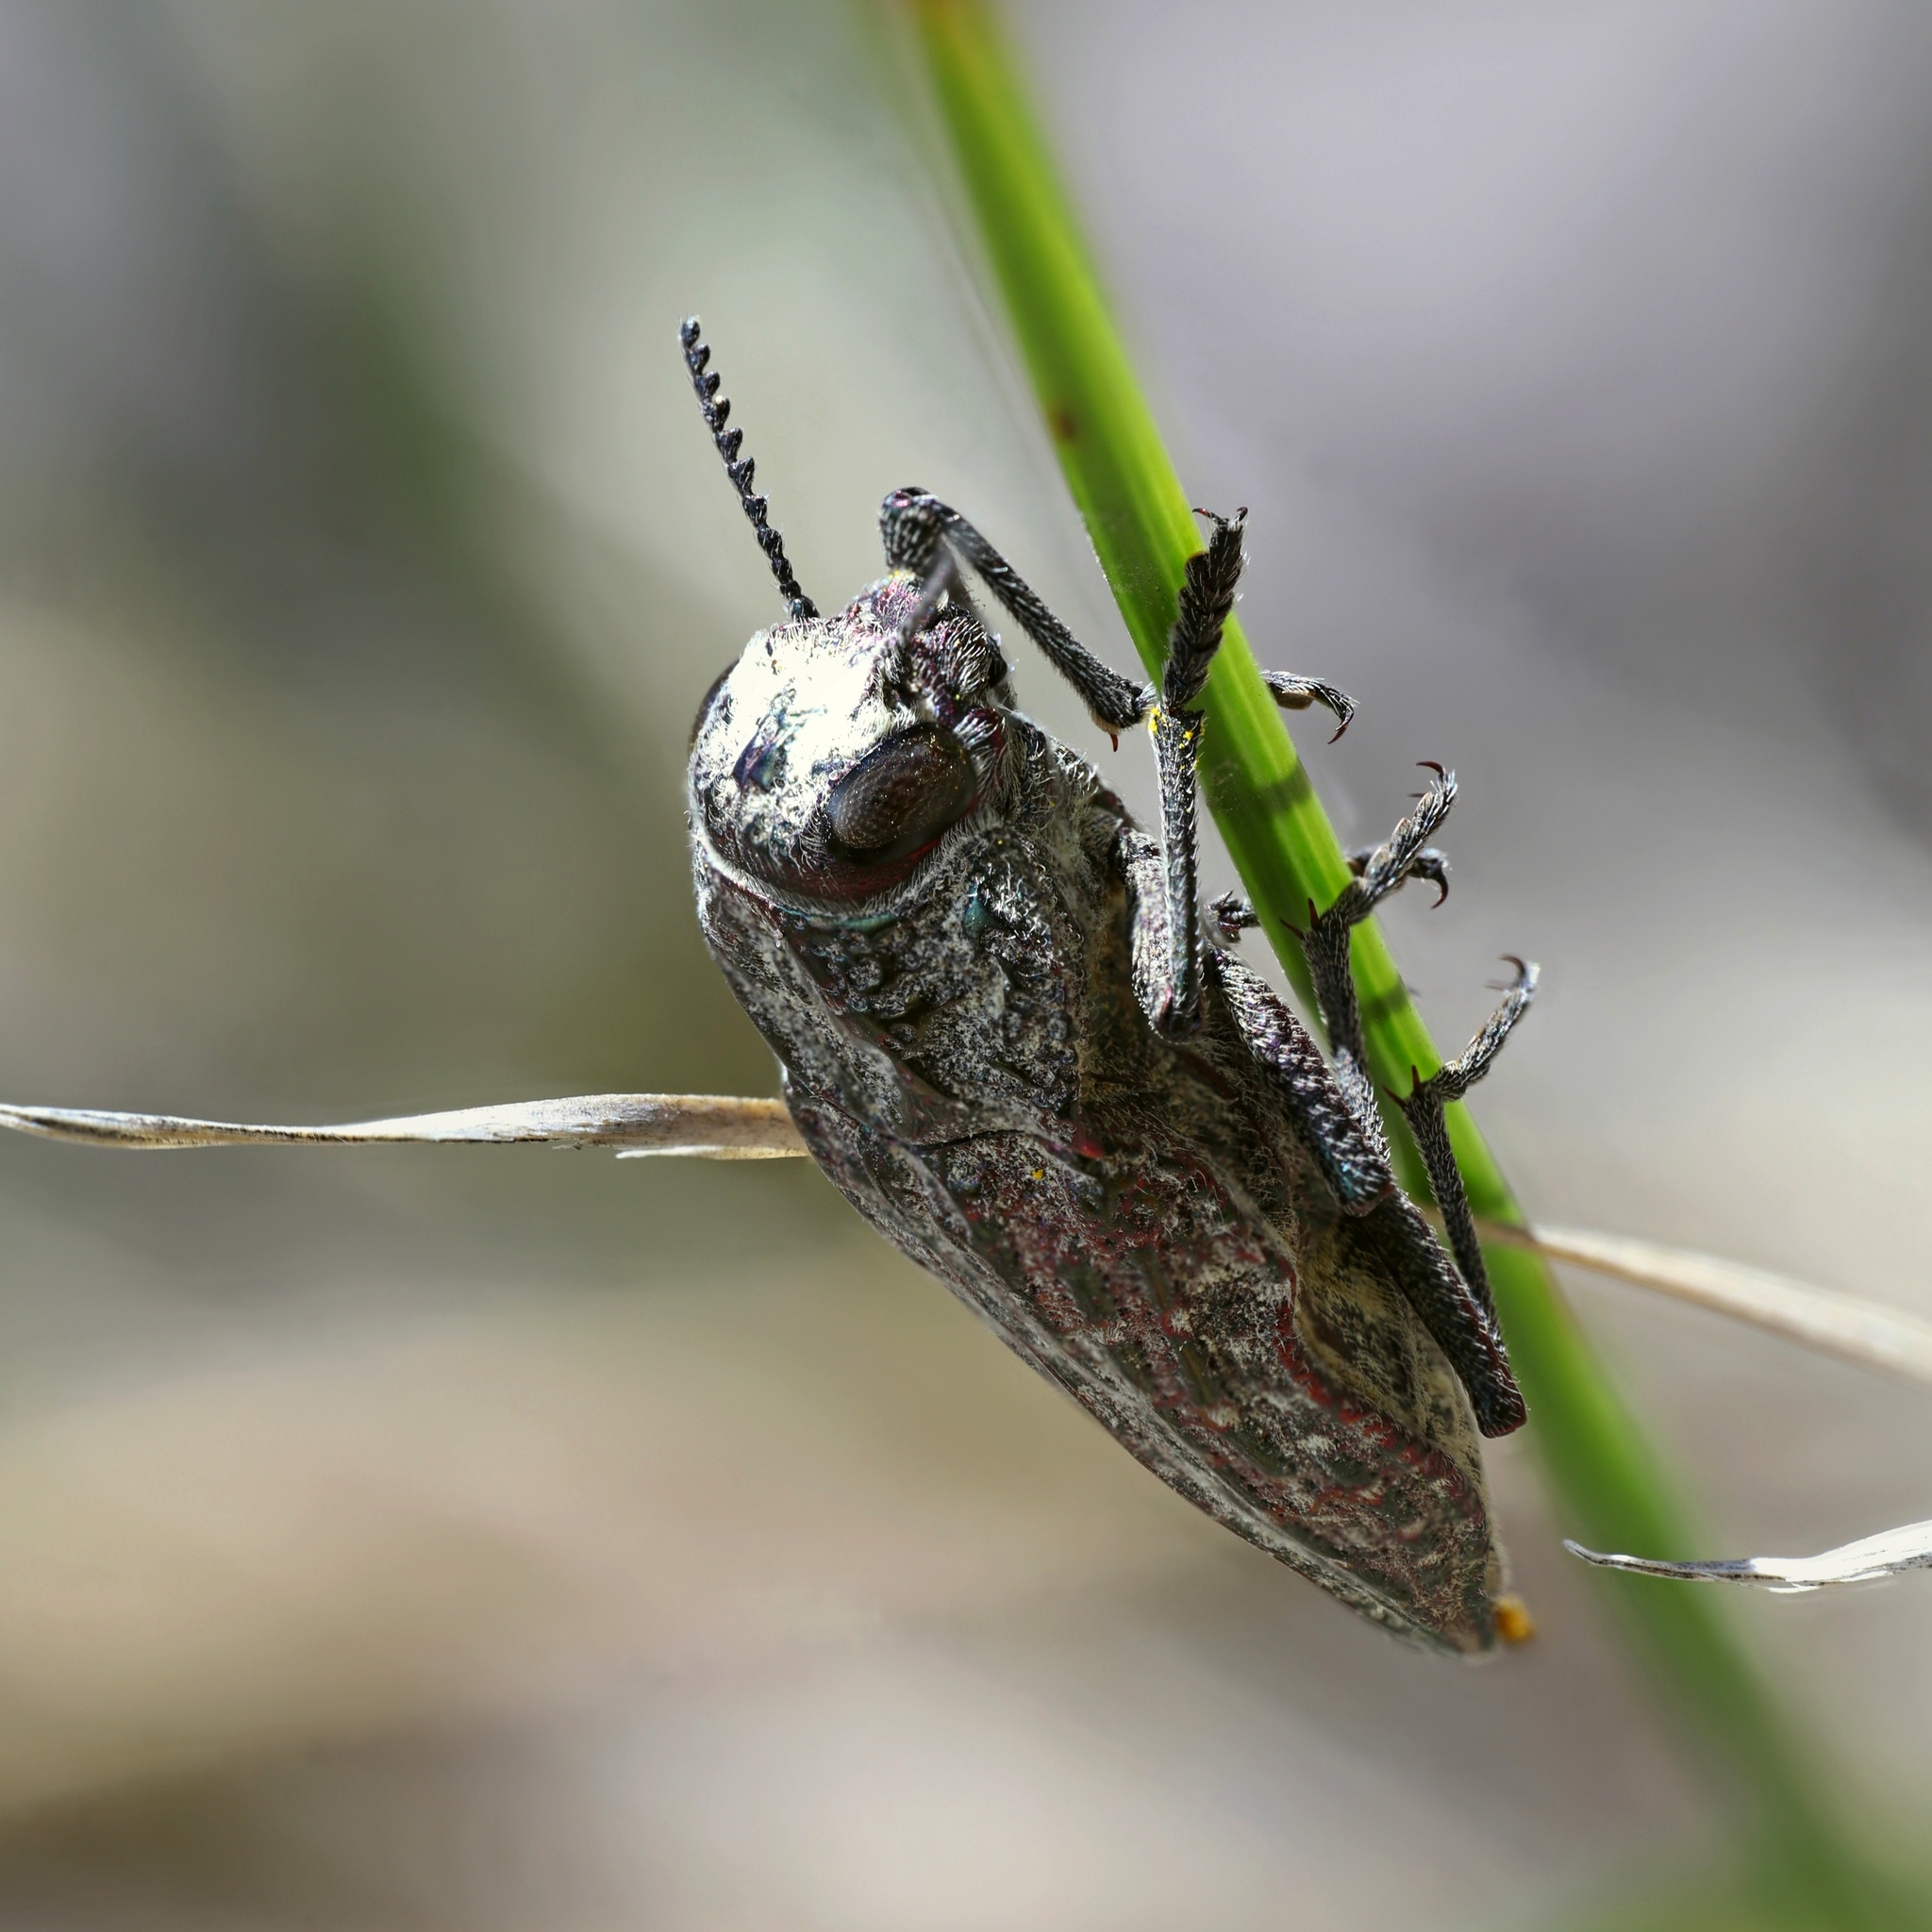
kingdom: Animalia
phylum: Arthropoda
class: Insecta
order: Coleoptera
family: Buprestidae
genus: Ectinogonia
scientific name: Ectinogonia speciosa
